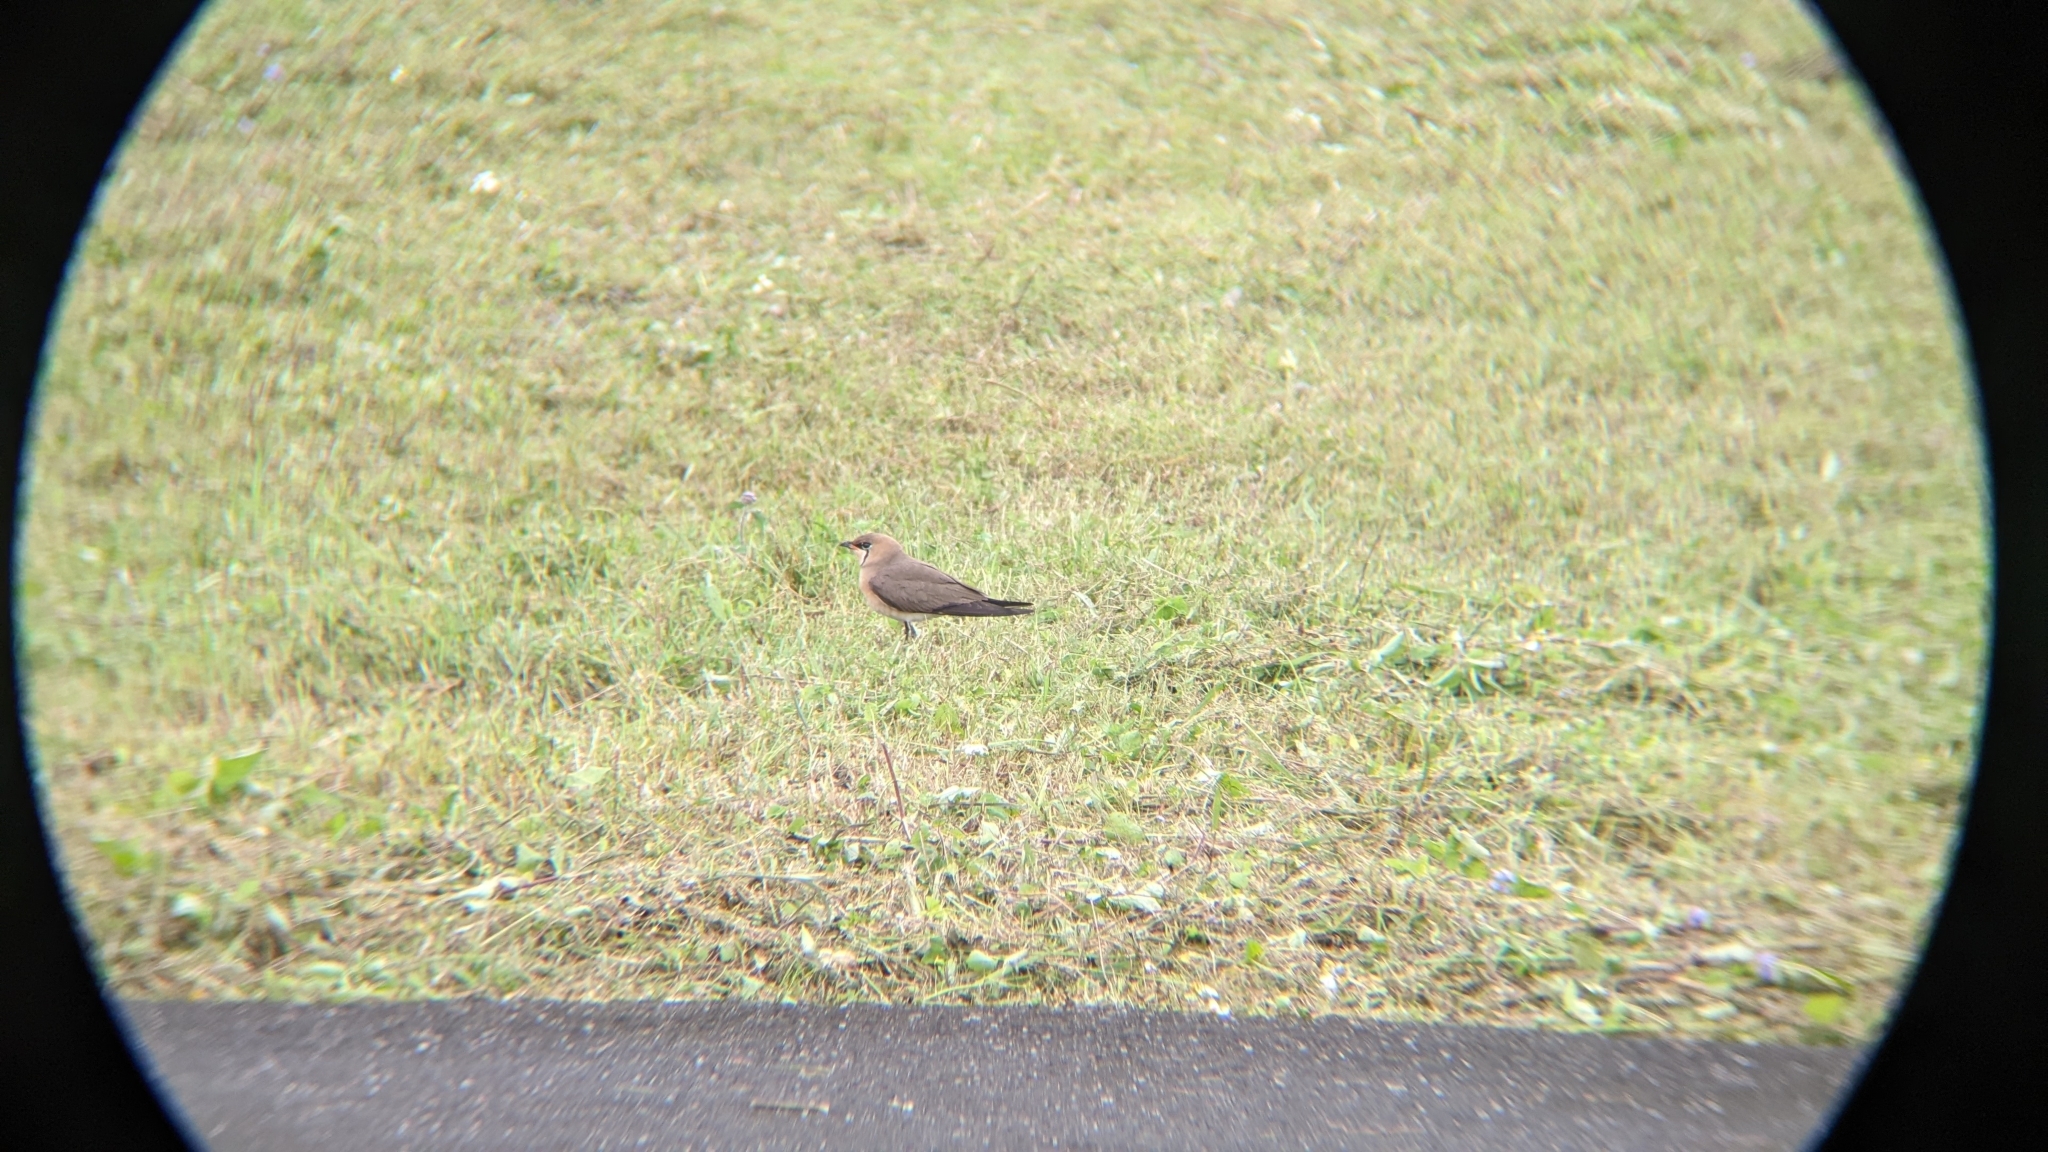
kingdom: Animalia
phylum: Chordata
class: Aves
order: Charadriiformes
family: Glareolidae
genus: Glareola
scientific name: Glareola maldivarum
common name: Oriental pratincole
